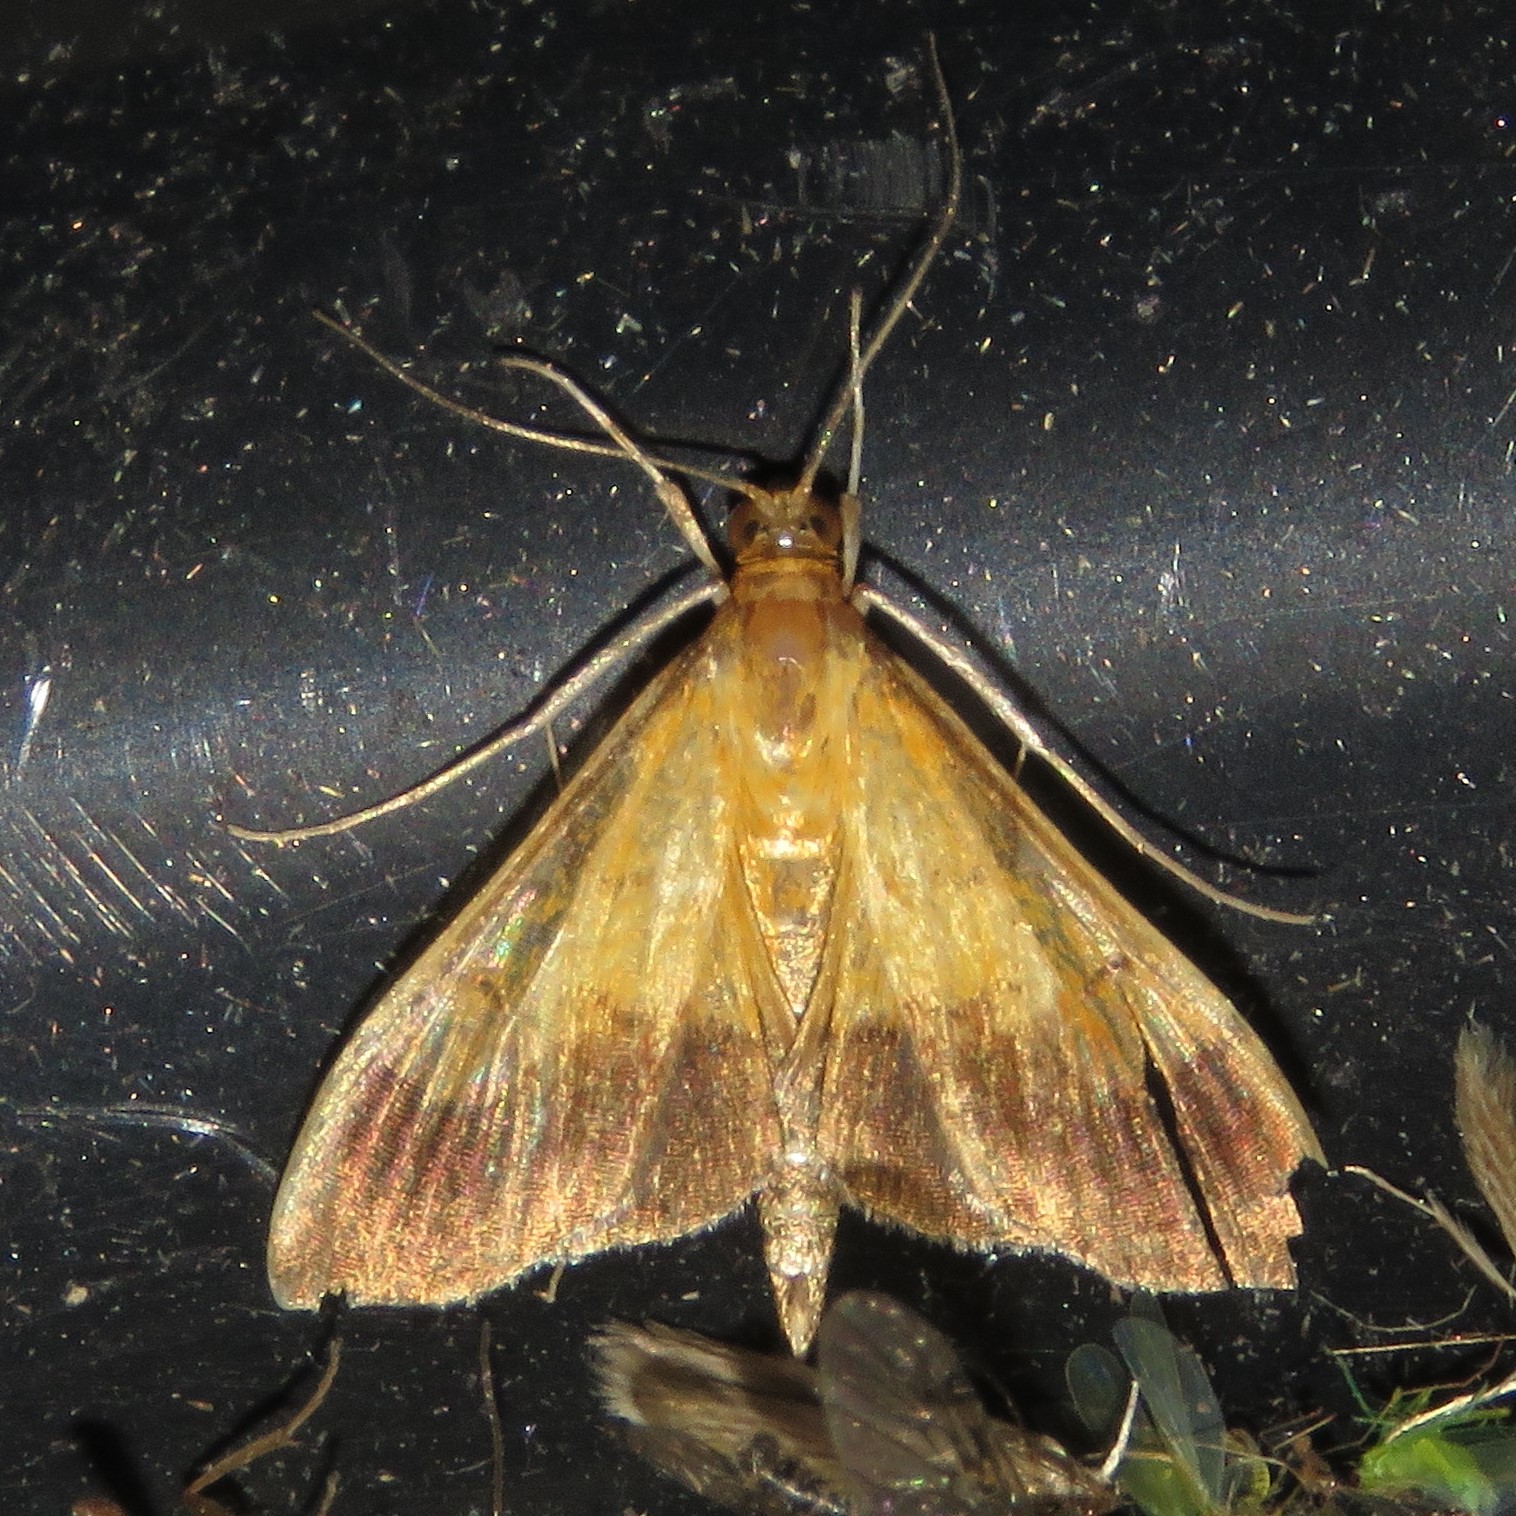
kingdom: Animalia
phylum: Arthropoda
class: Insecta
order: Lepidoptera
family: Crambidae
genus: Pyrausta
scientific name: Pyrausta bicoloralis
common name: Bicolored pyrausta moth
